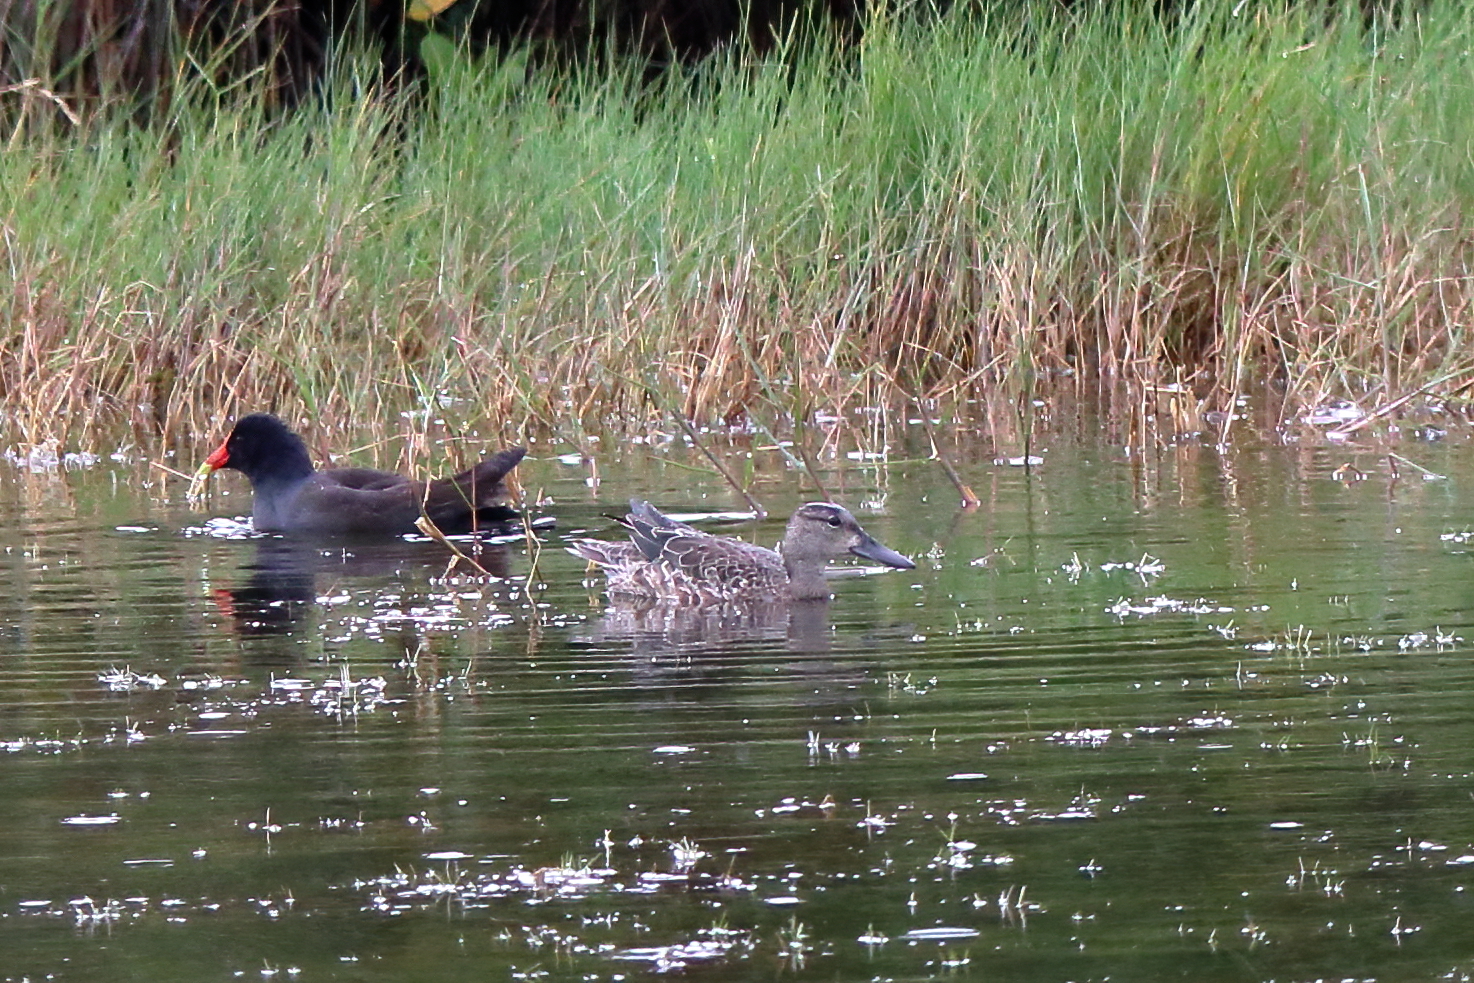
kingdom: Animalia
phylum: Chordata
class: Aves
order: Anseriformes
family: Anatidae
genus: Spatula
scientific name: Spatula discors
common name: Blue-winged teal
